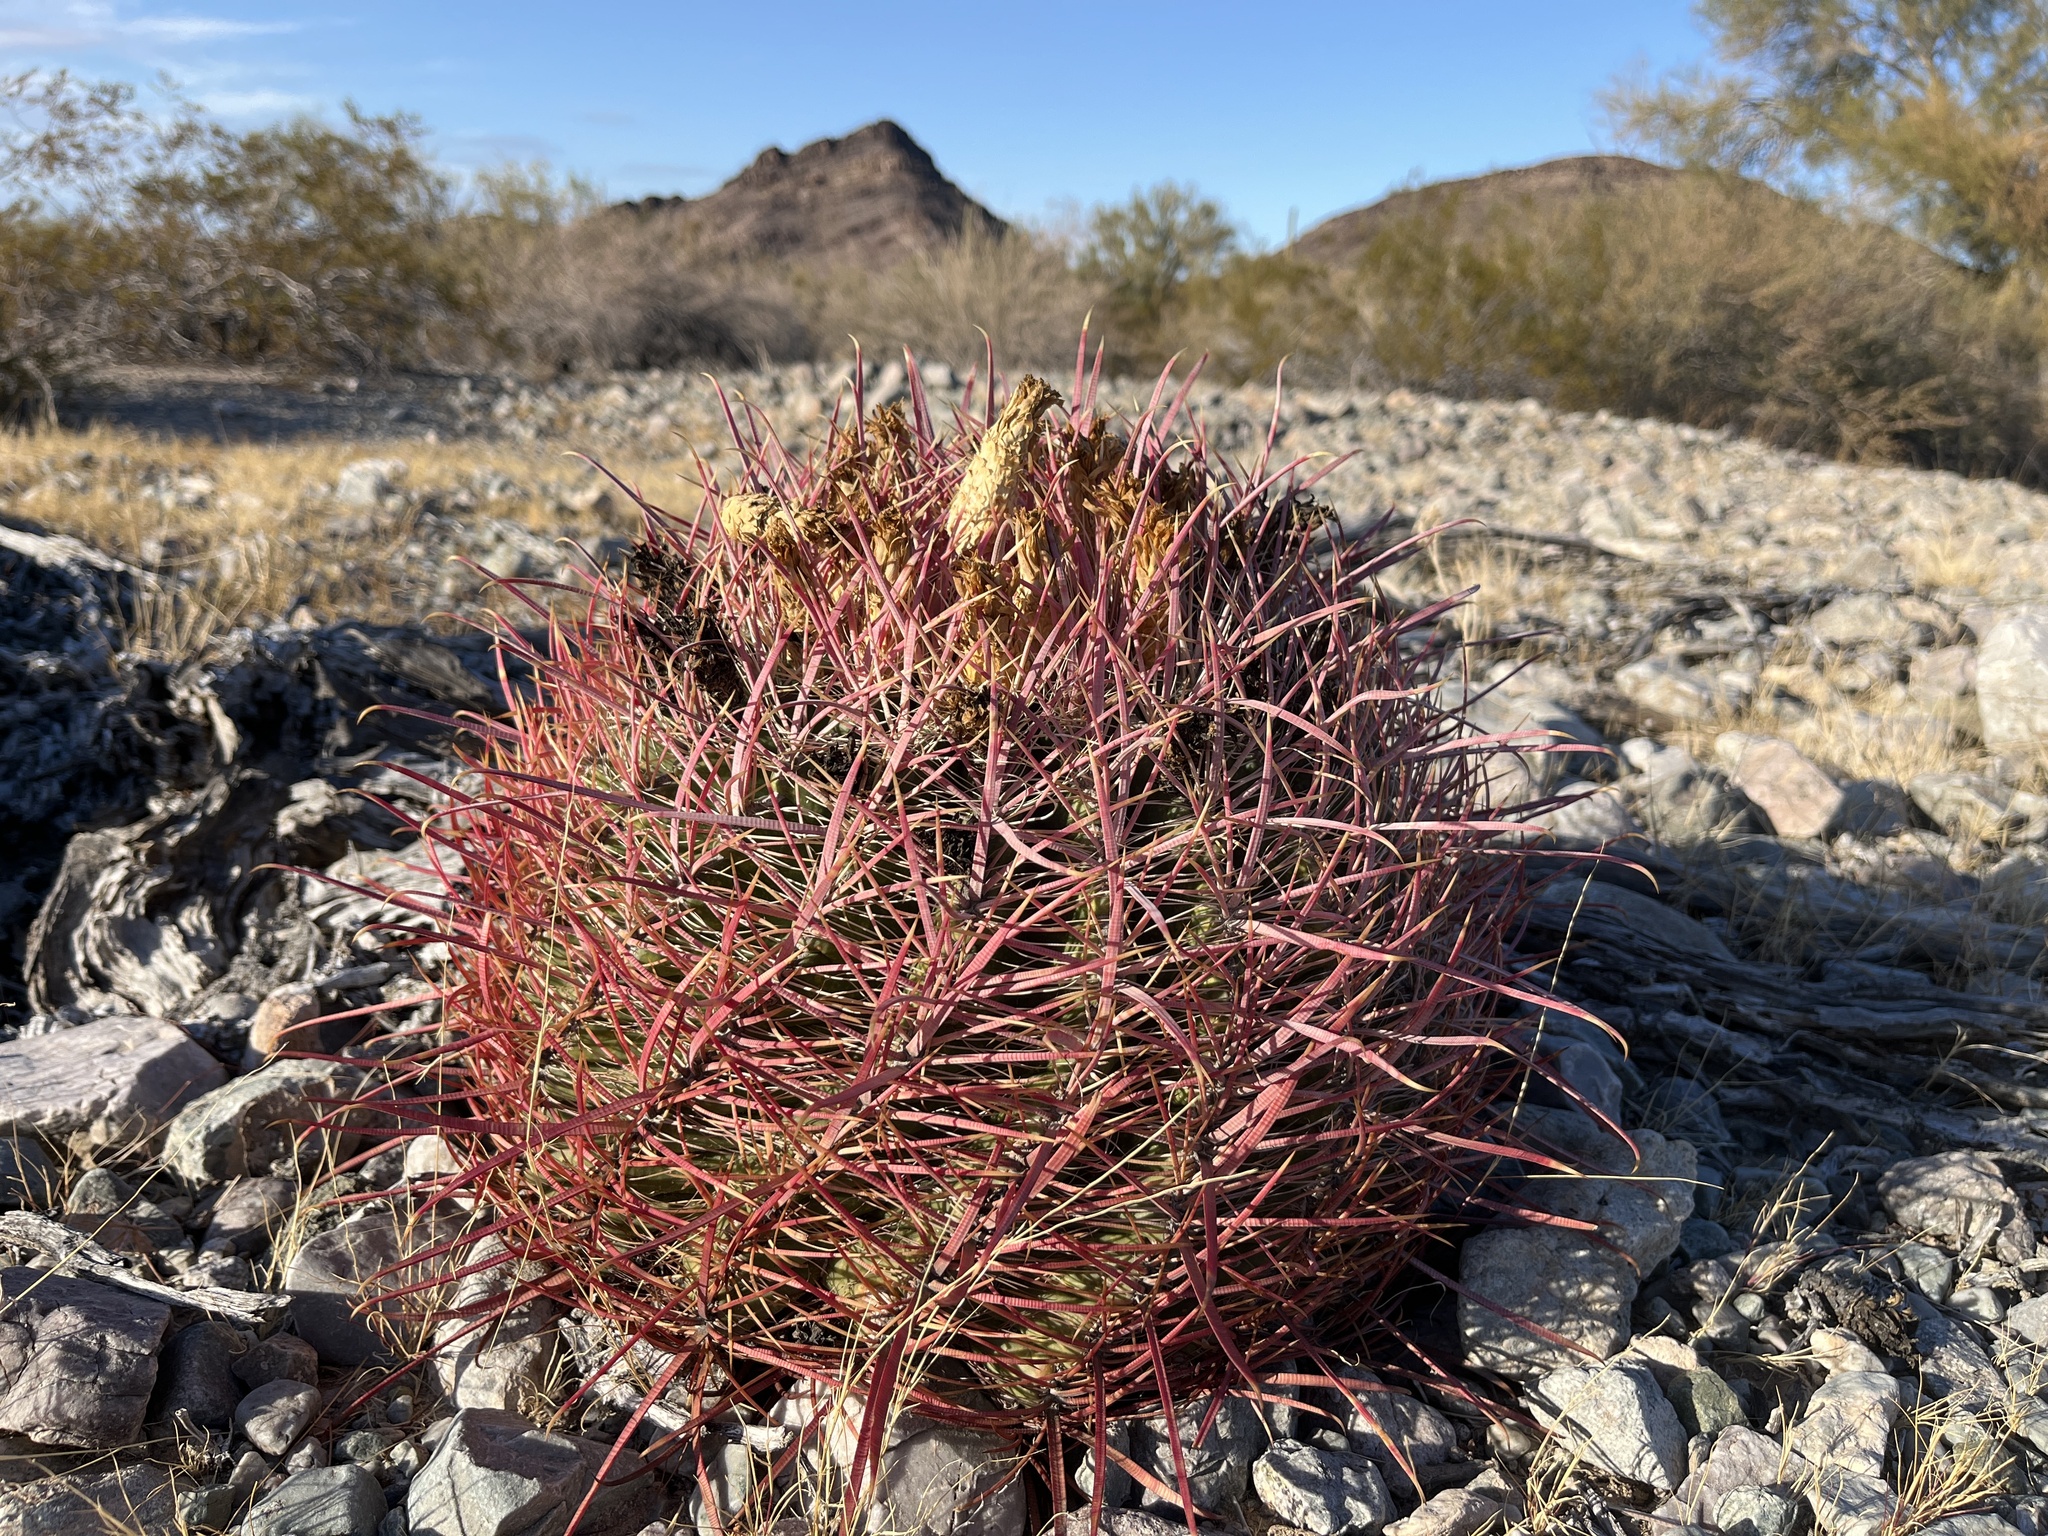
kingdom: Plantae
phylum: Tracheophyta
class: Magnoliopsida
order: Caryophyllales
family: Cactaceae
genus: Ferocactus
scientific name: Ferocactus cylindraceus
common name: California barrel cactus
